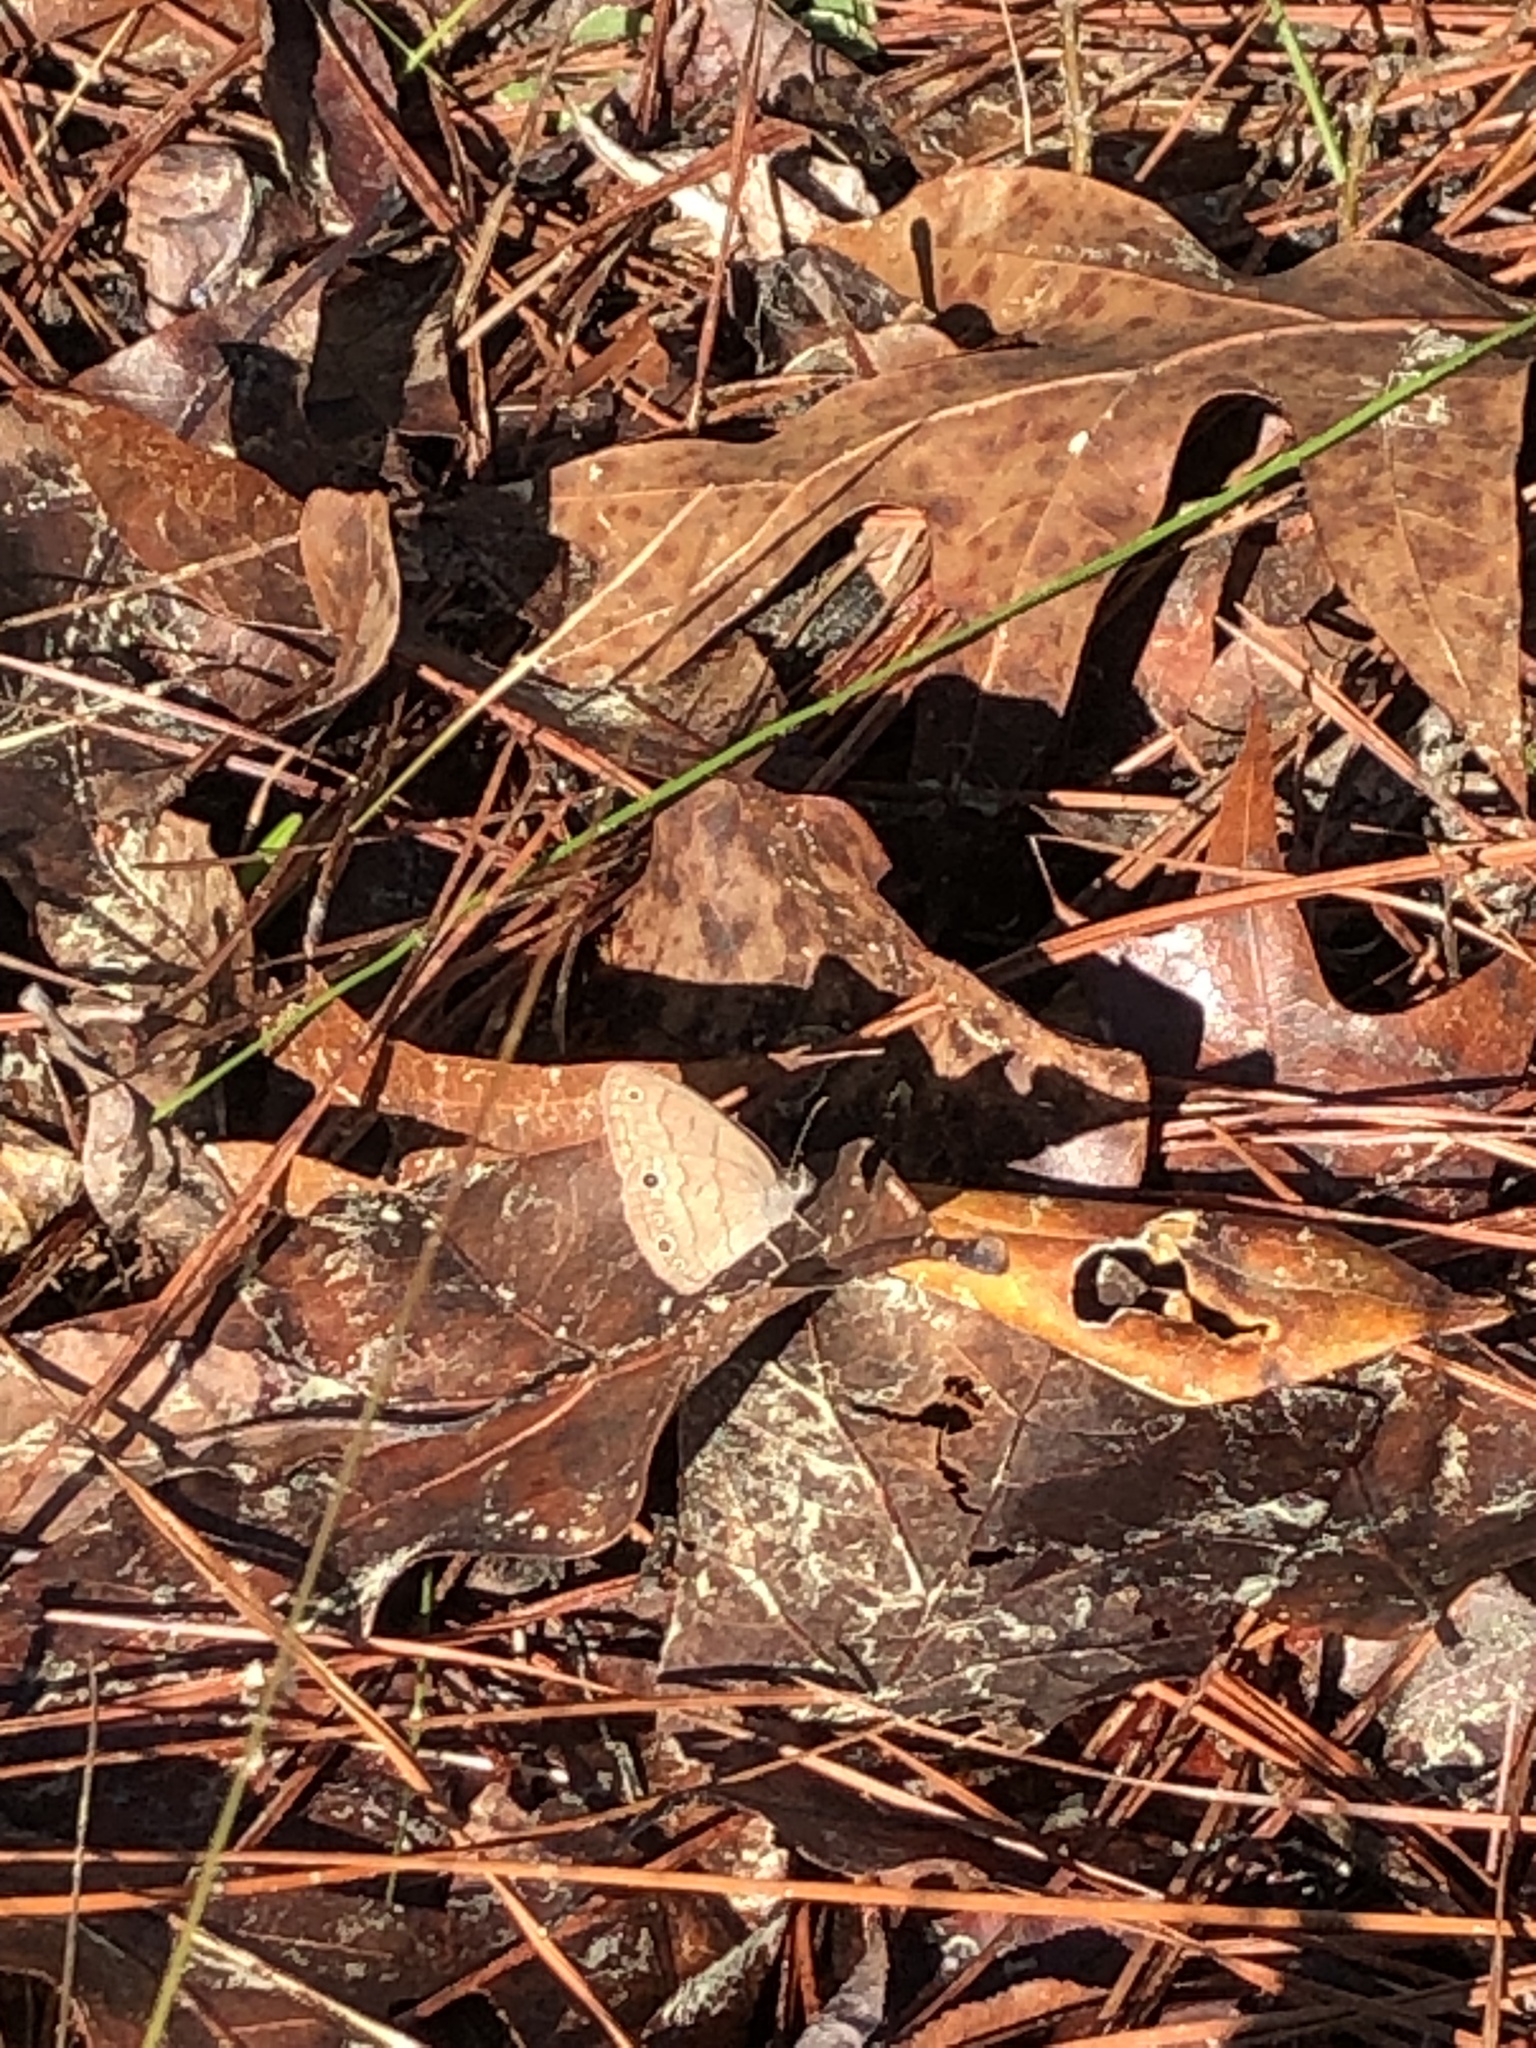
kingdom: Animalia
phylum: Arthropoda
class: Insecta
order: Lepidoptera
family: Nymphalidae
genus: Hermeuptychia
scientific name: Hermeuptychia hermes
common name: Hermes satyr
